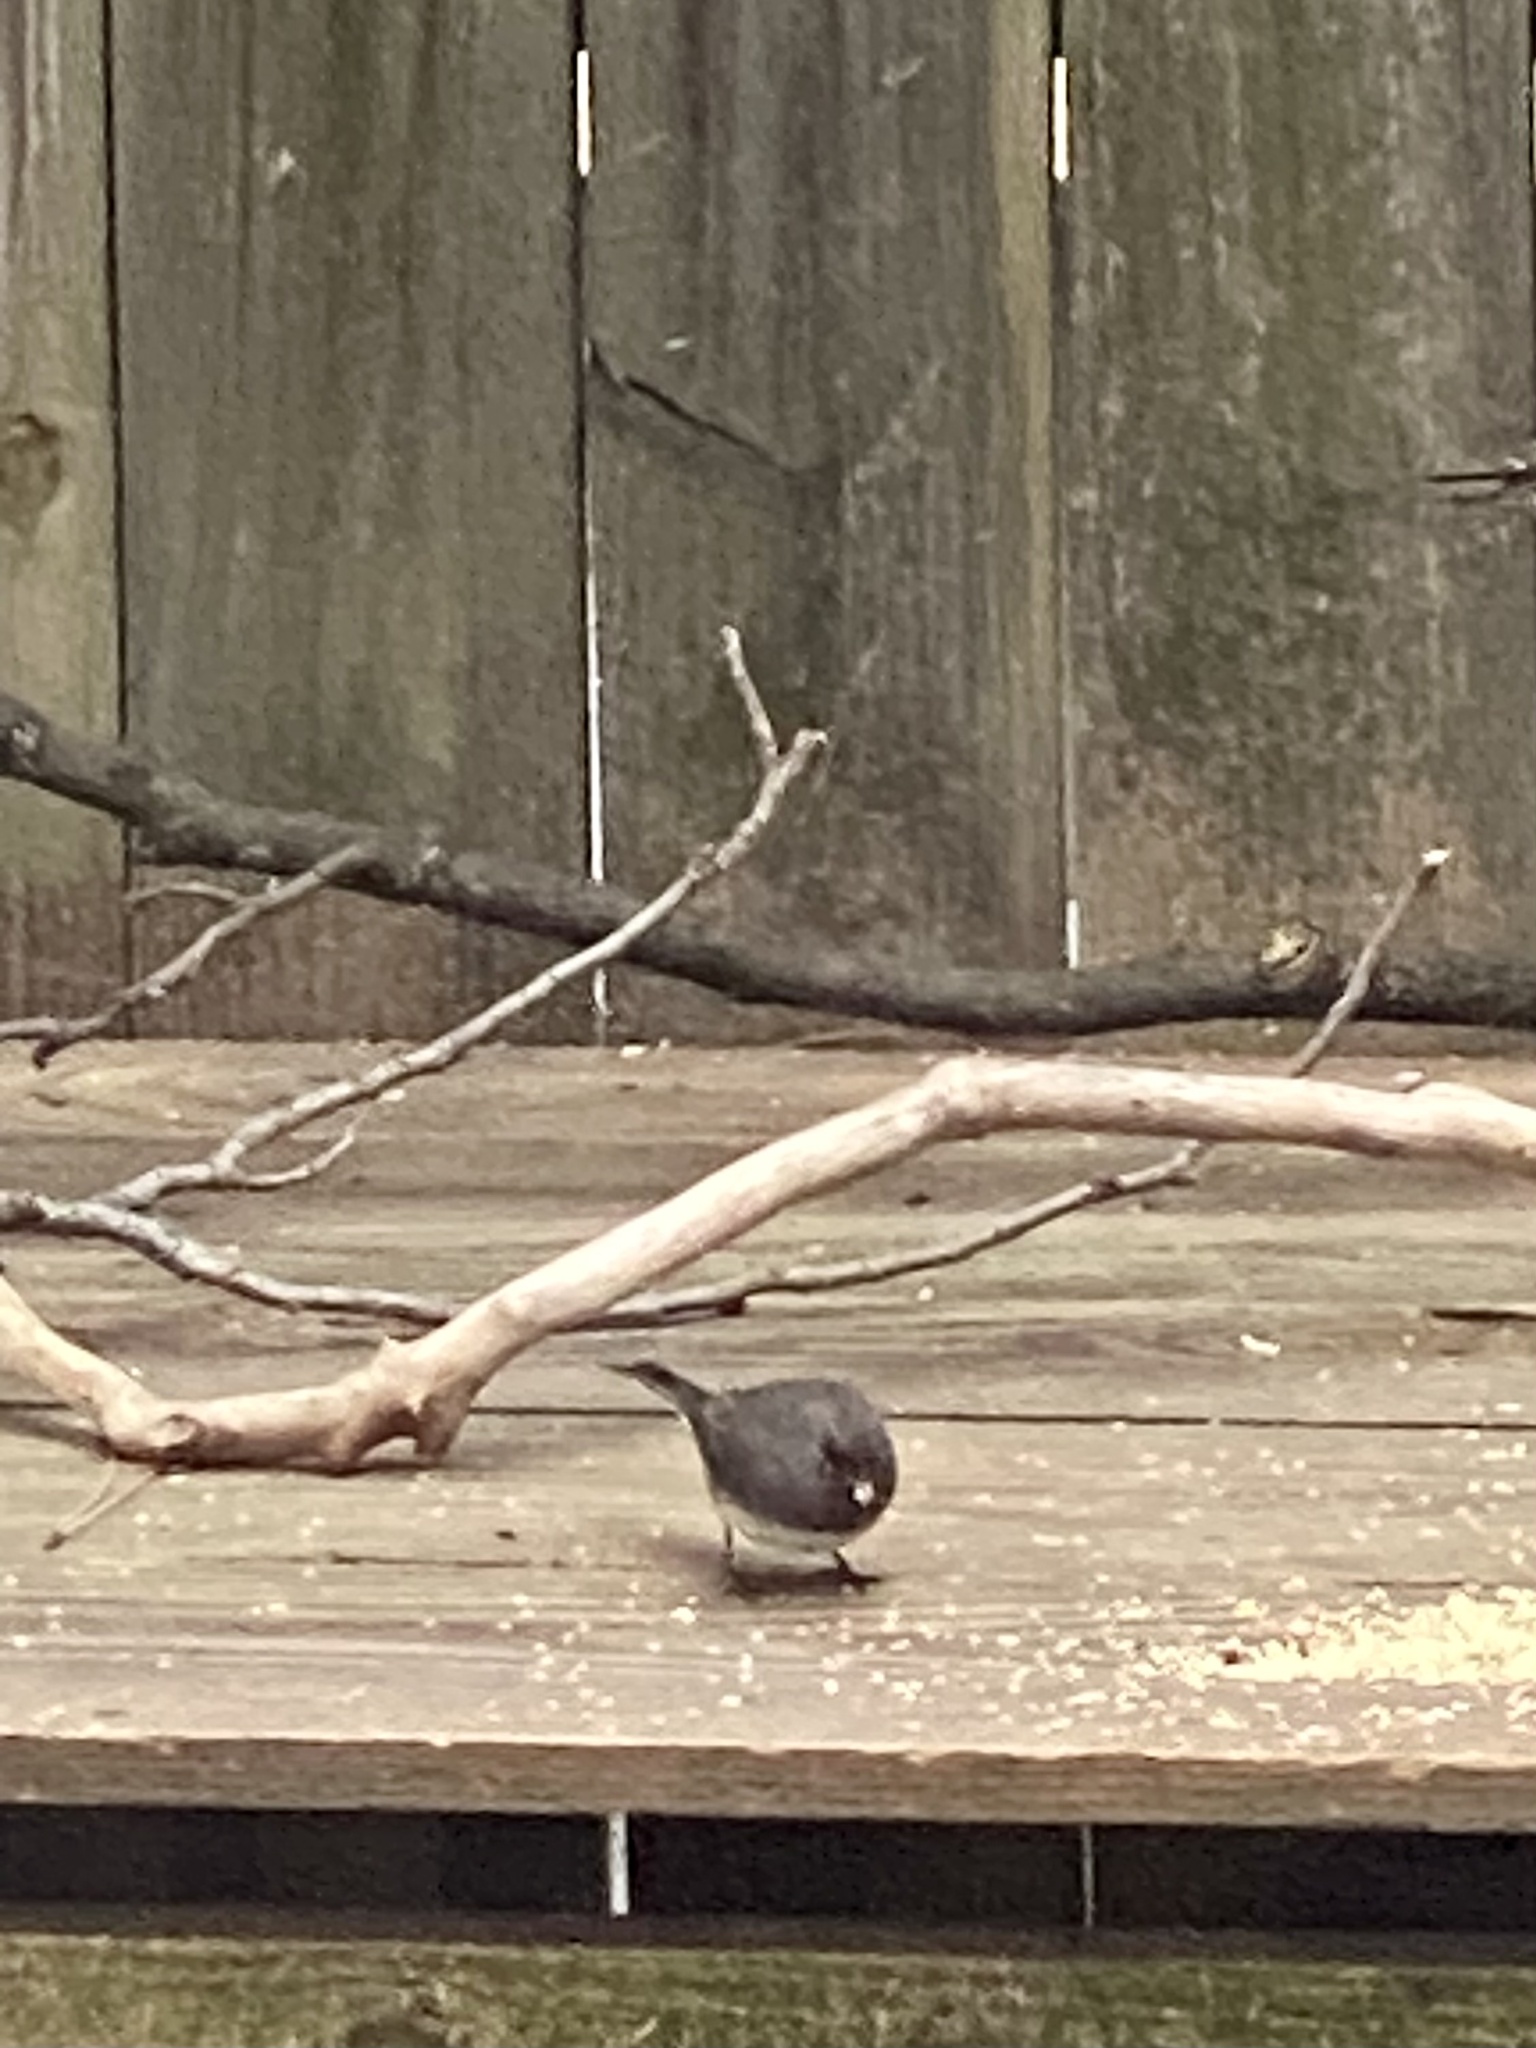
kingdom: Animalia
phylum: Chordata
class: Aves
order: Passeriformes
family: Passerellidae
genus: Junco
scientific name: Junco hyemalis
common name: Dark-eyed junco
